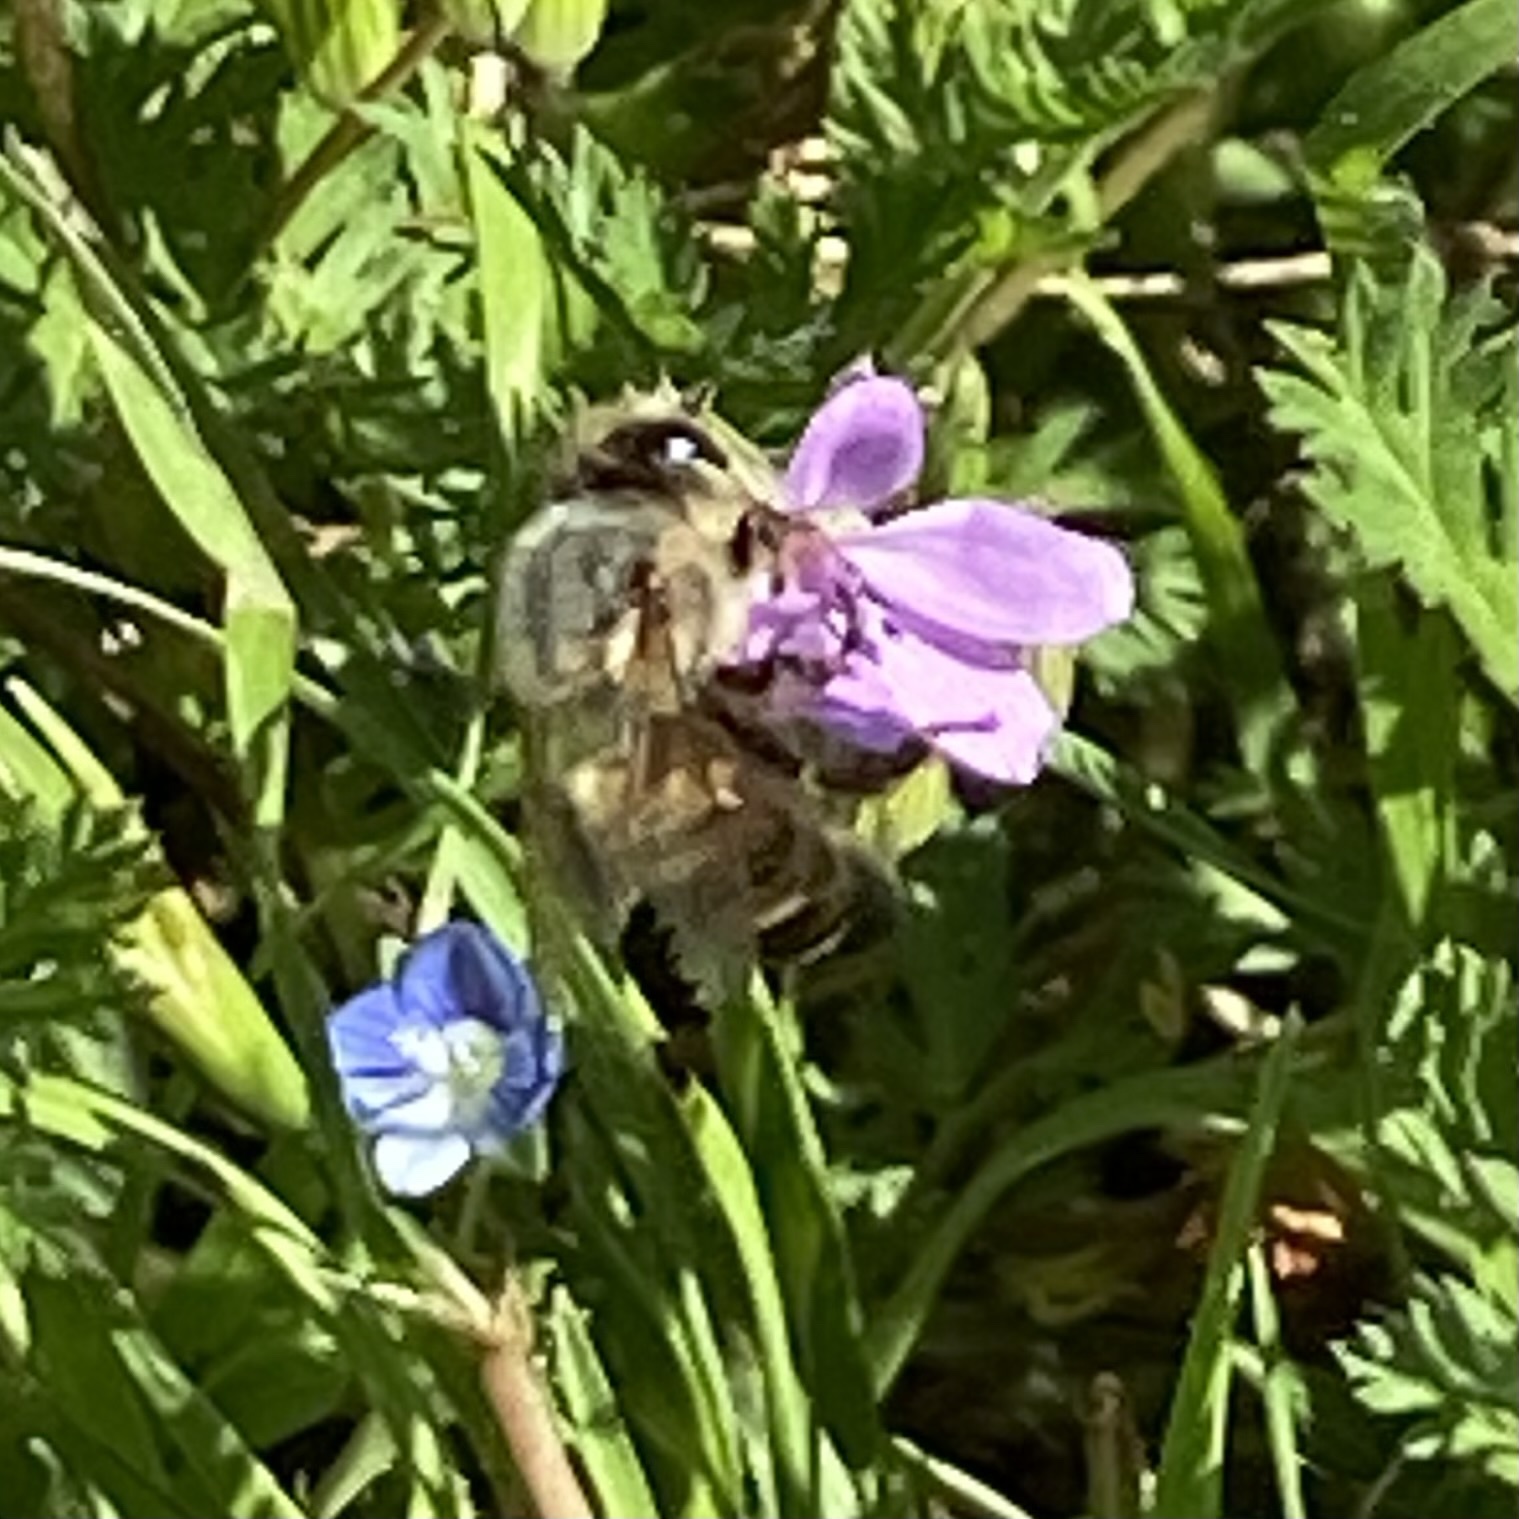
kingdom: Animalia
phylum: Arthropoda
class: Insecta
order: Hymenoptera
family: Apidae
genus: Apis
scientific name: Apis mellifera
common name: Honey bee
